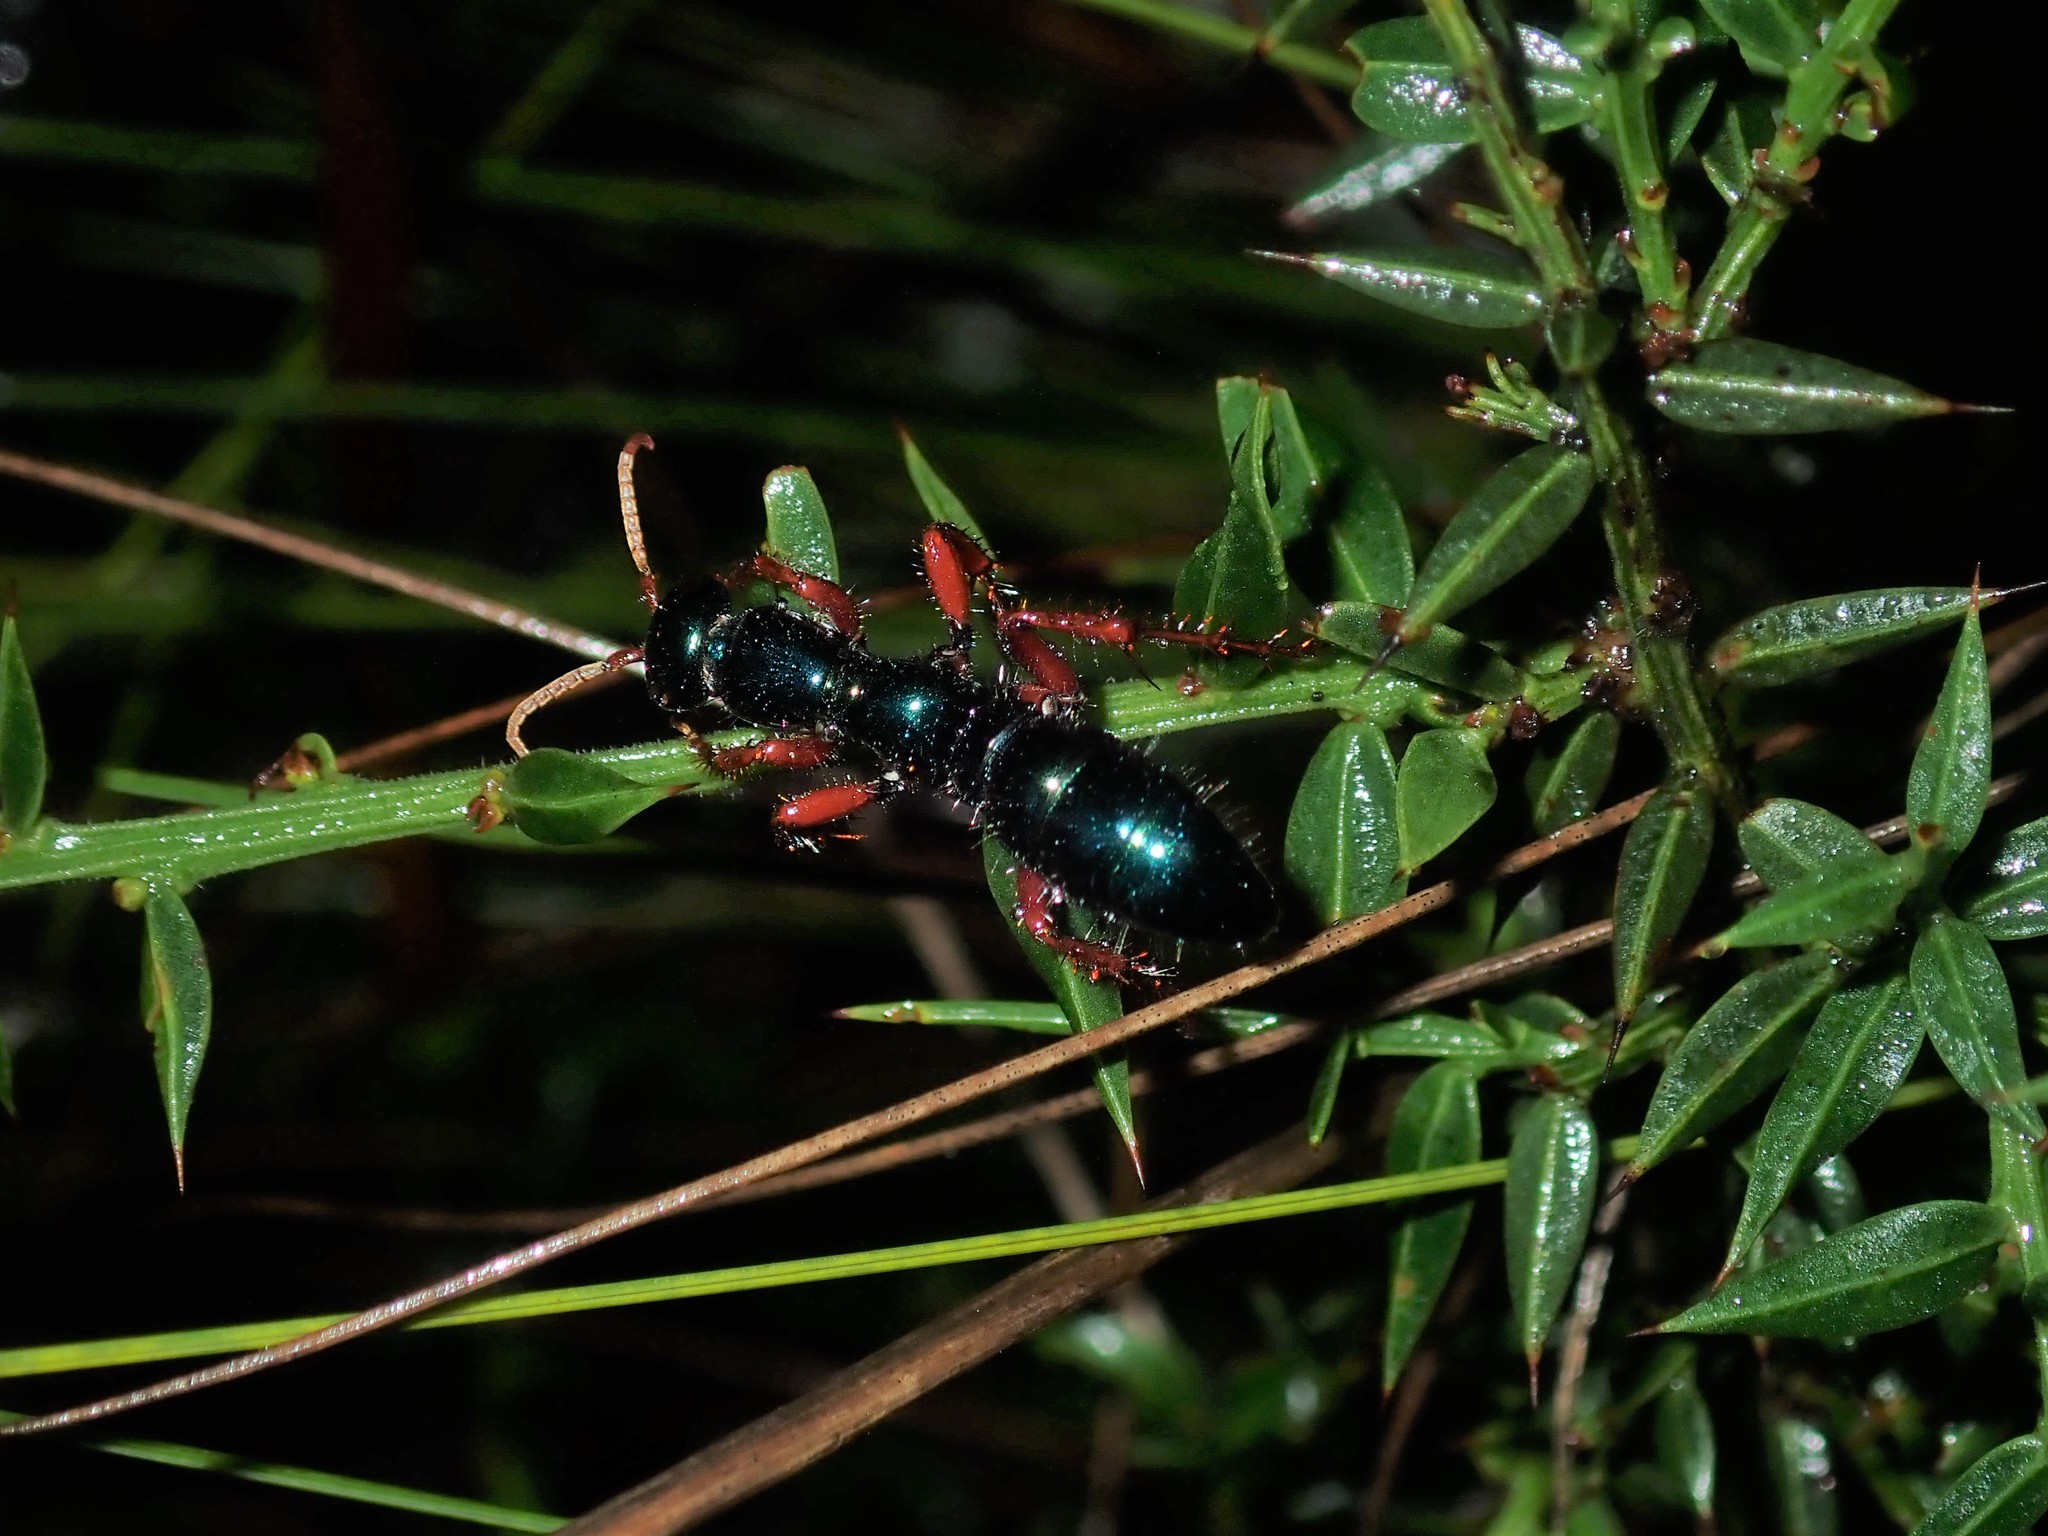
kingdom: Animalia
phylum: Arthropoda
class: Insecta
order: Hymenoptera
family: Tiphiidae
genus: Diamma
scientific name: Diamma
